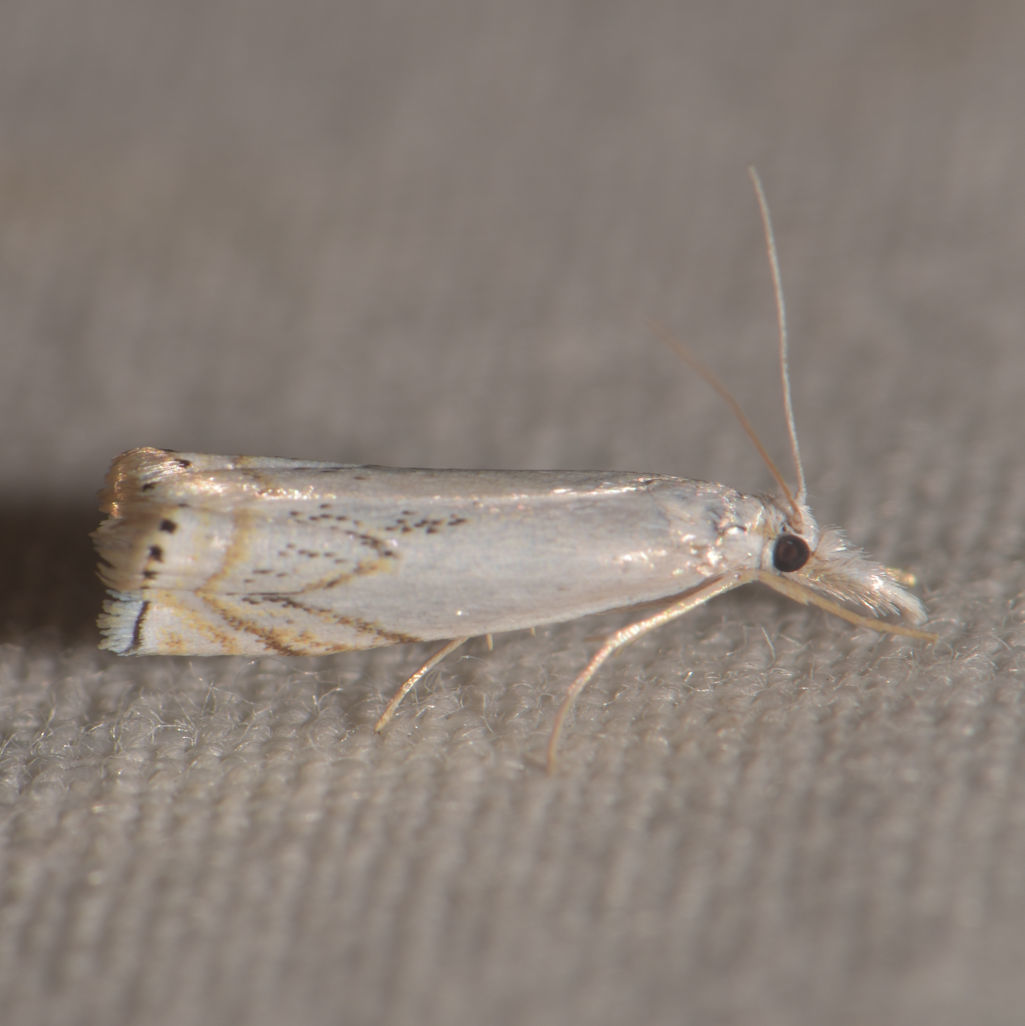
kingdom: Animalia
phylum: Arthropoda
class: Insecta
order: Lepidoptera
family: Crambidae
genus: Crambus
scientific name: Crambus albellus
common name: Small white grass-veneer
